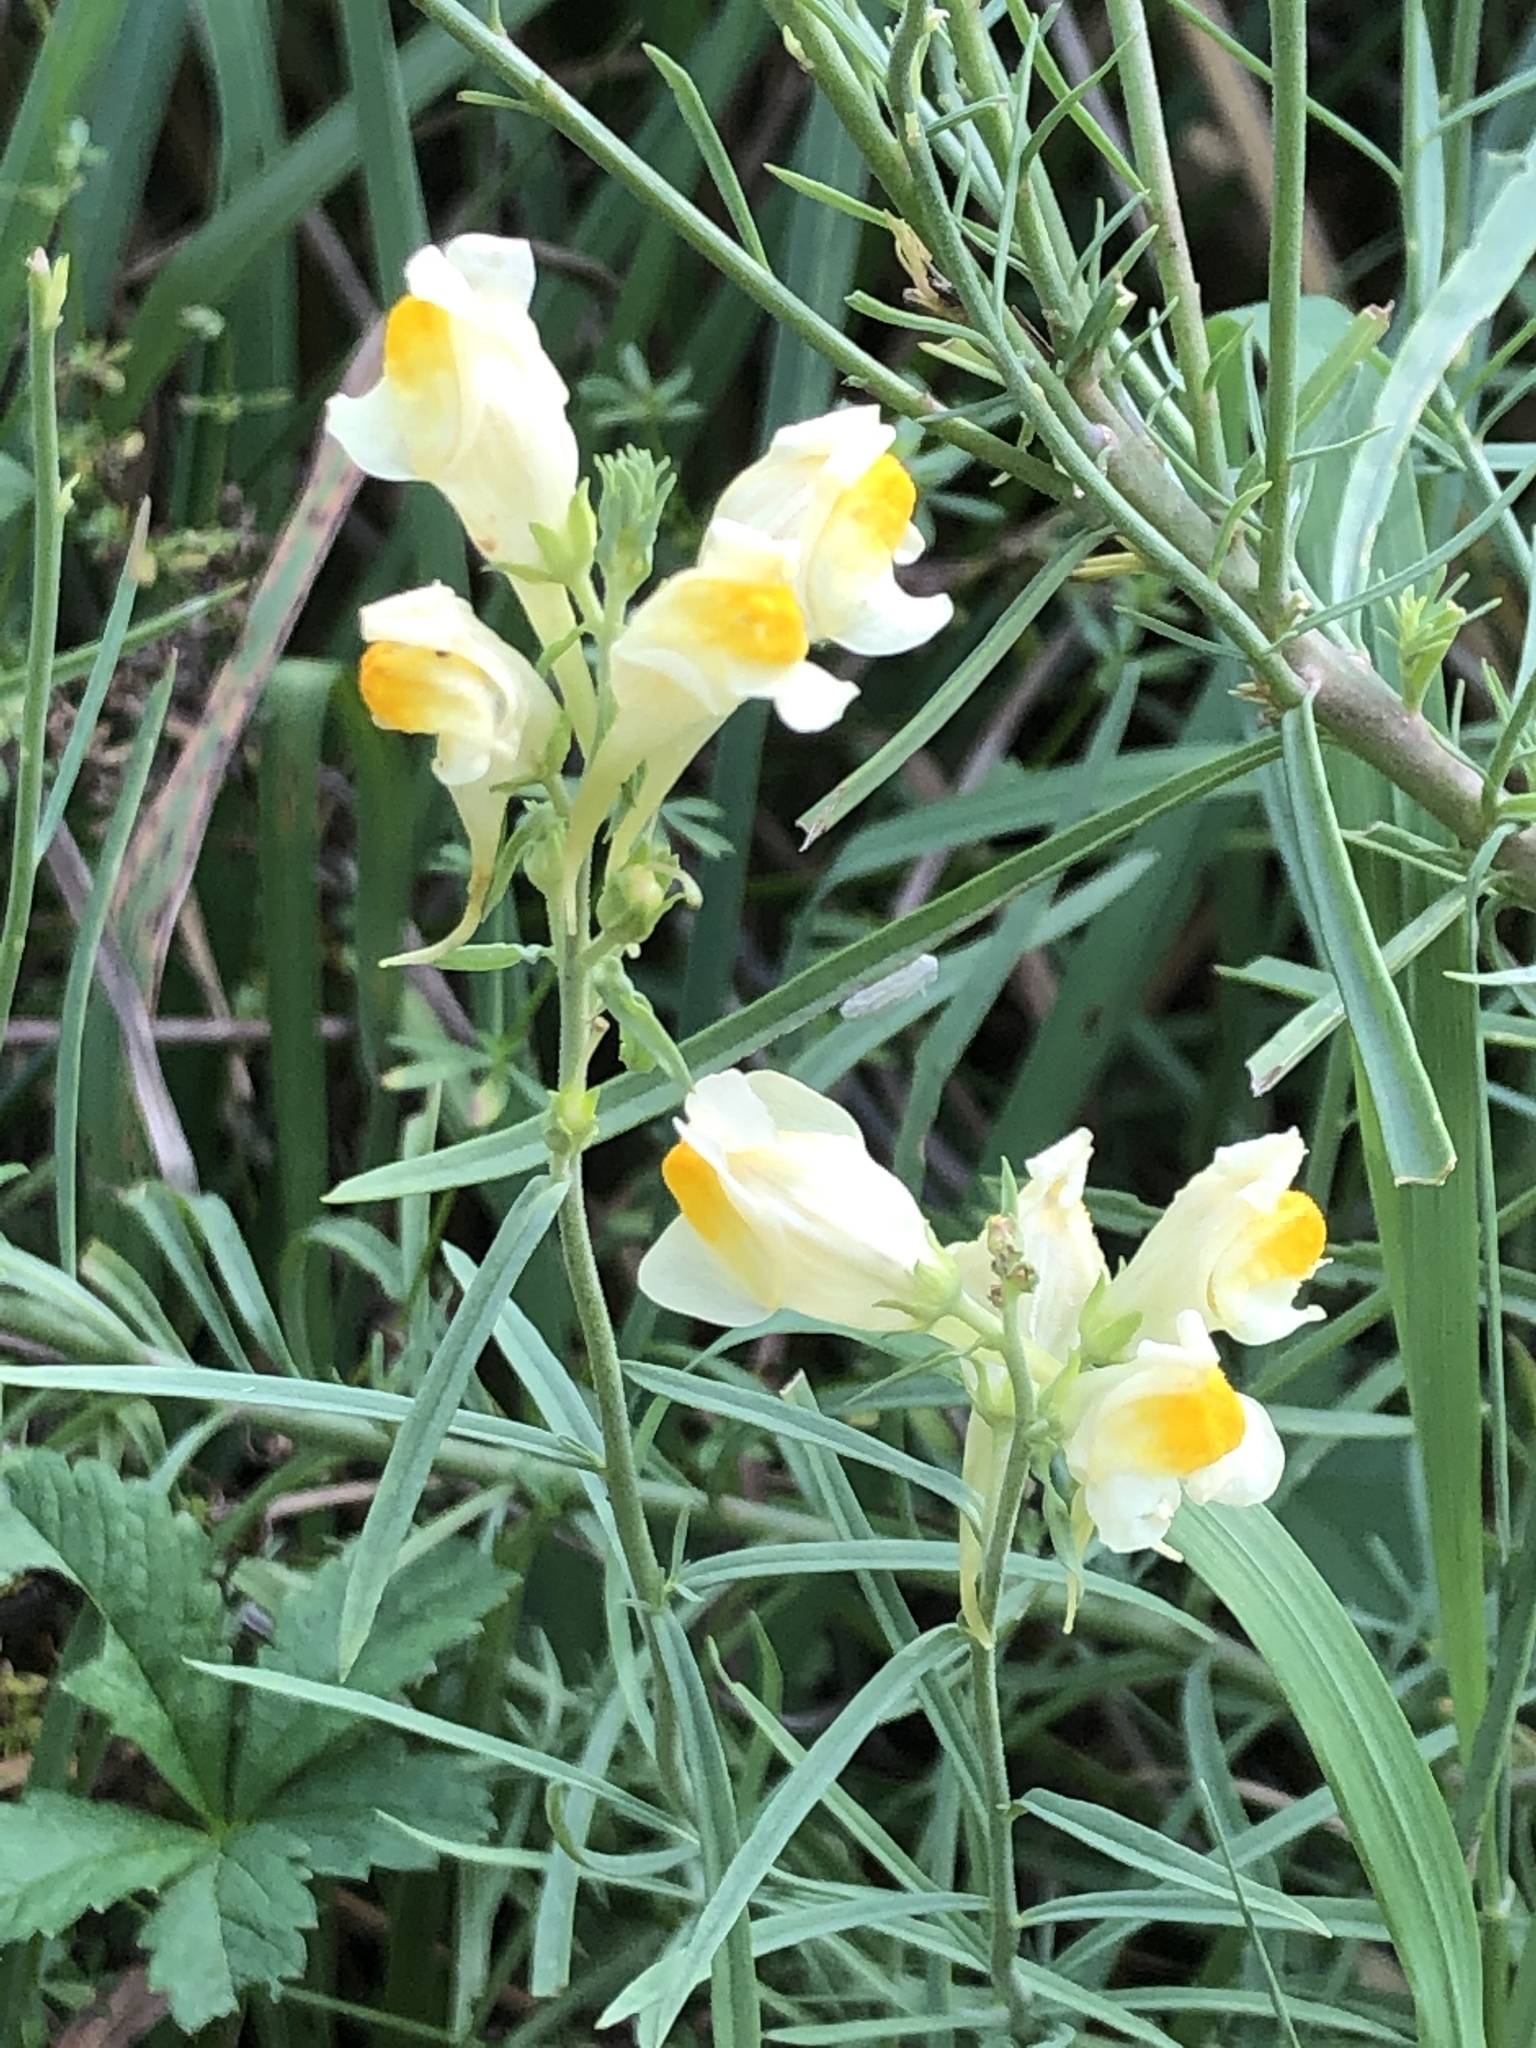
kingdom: Plantae
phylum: Tracheophyta
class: Magnoliopsida
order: Lamiales
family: Plantaginaceae
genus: Linaria
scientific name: Linaria vulgaris
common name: Butter and eggs
